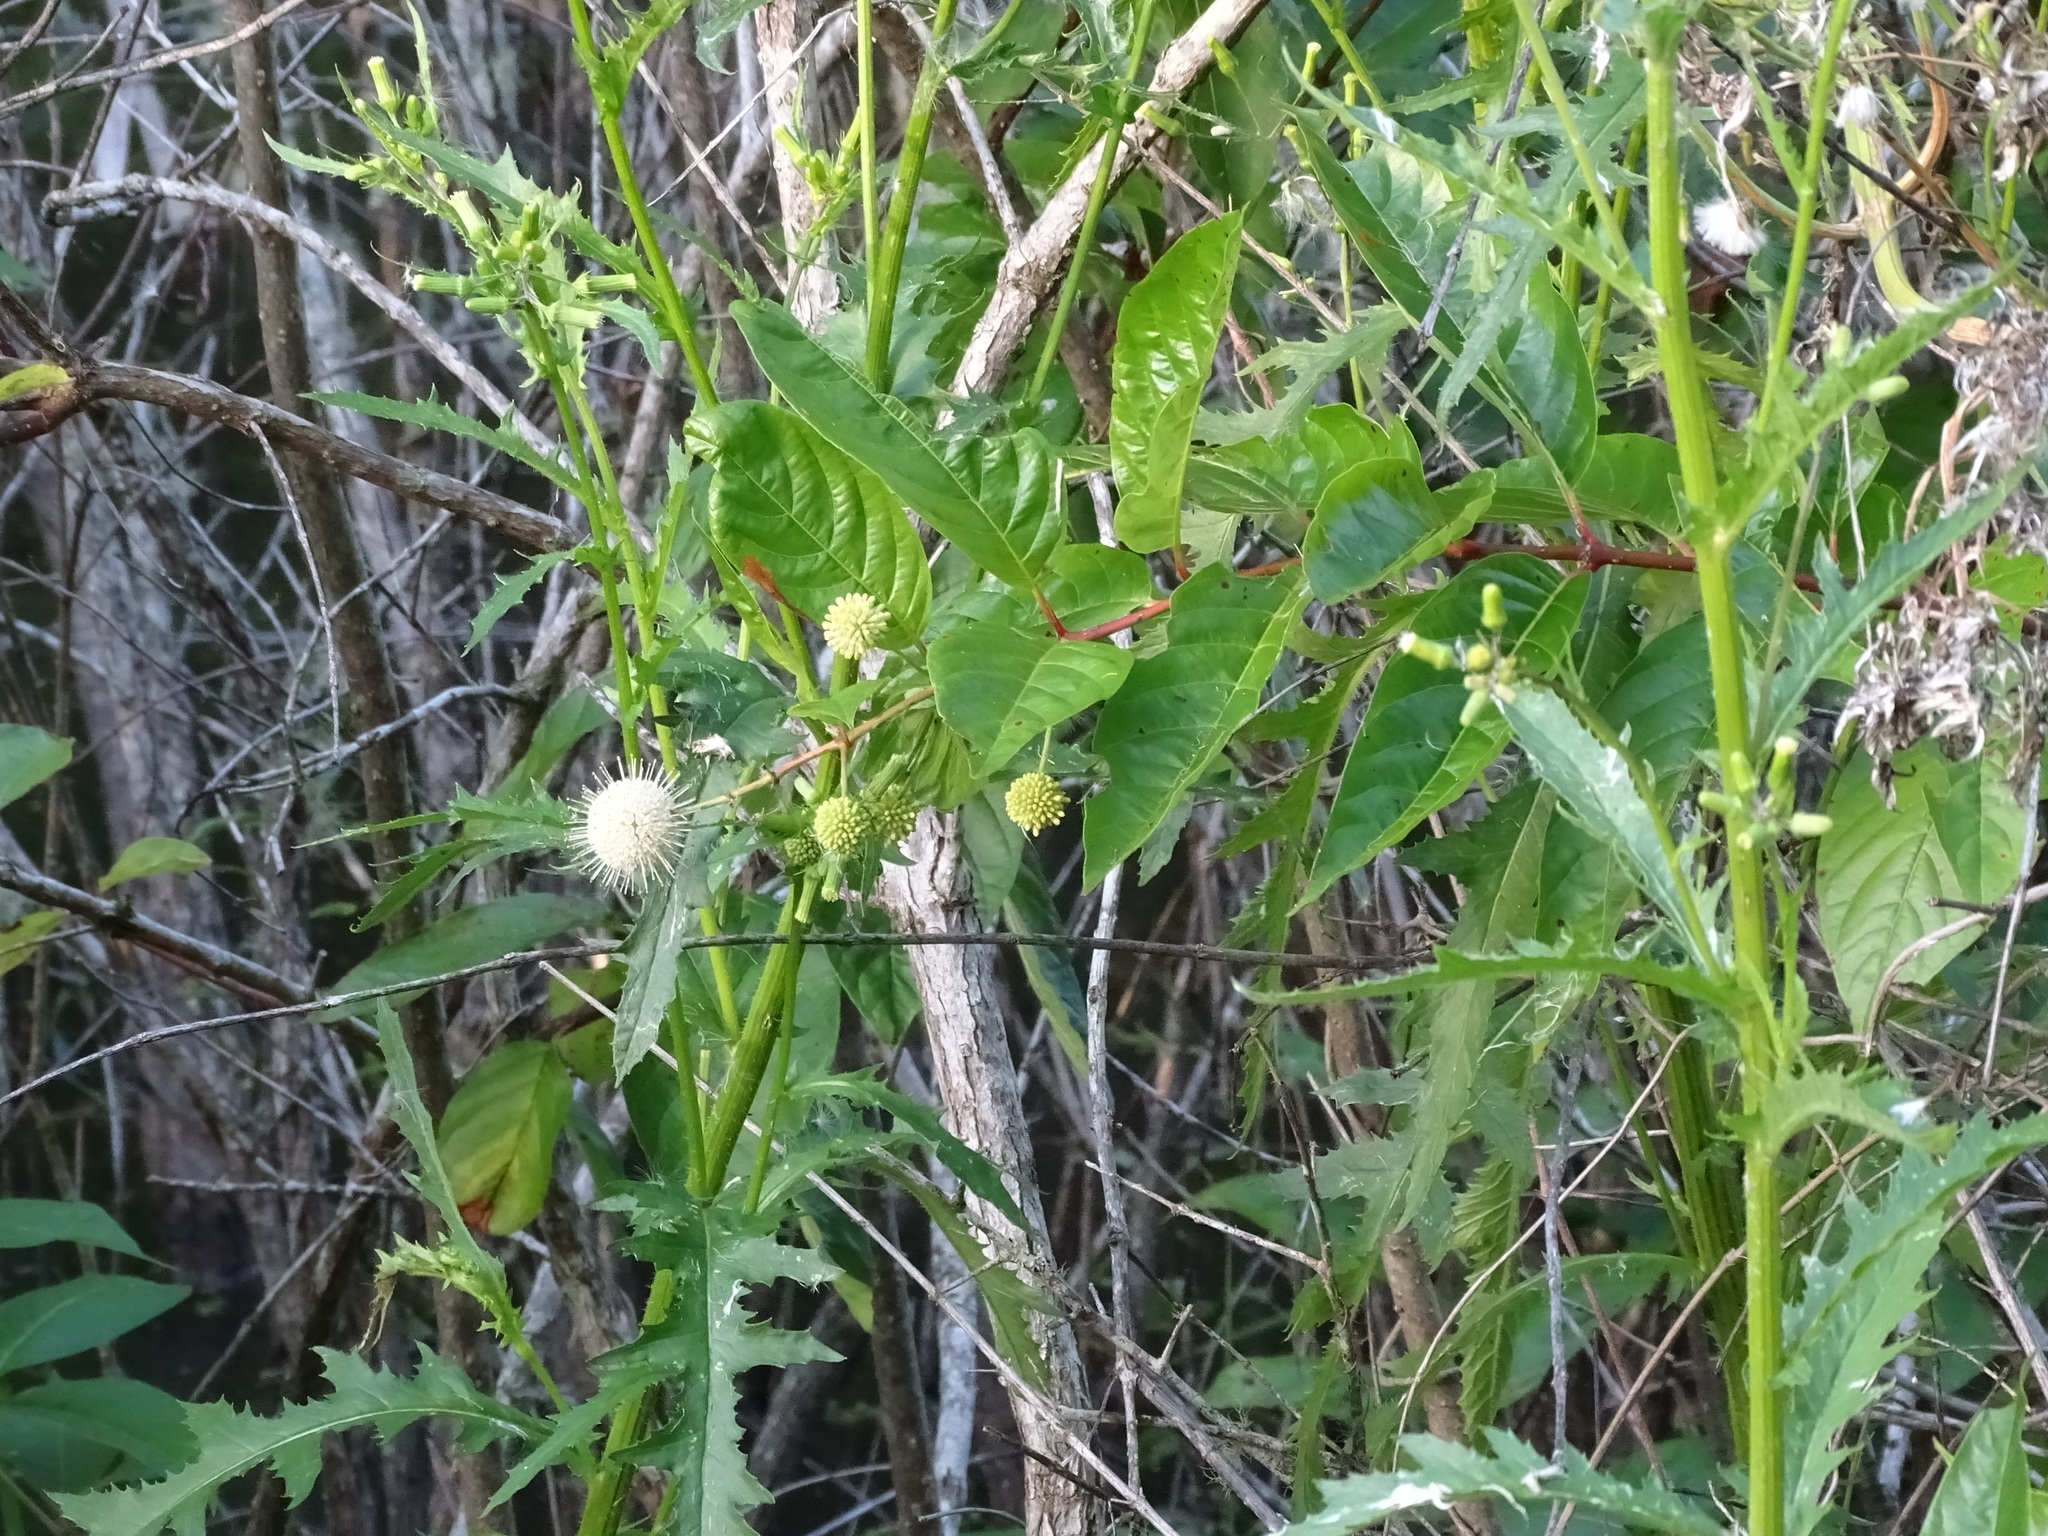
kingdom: Plantae
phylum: Tracheophyta
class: Magnoliopsida
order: Gentianales
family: Rubiaceae
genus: Cephalanthus
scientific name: Cephalanthus occidentalis
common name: Button-willow
